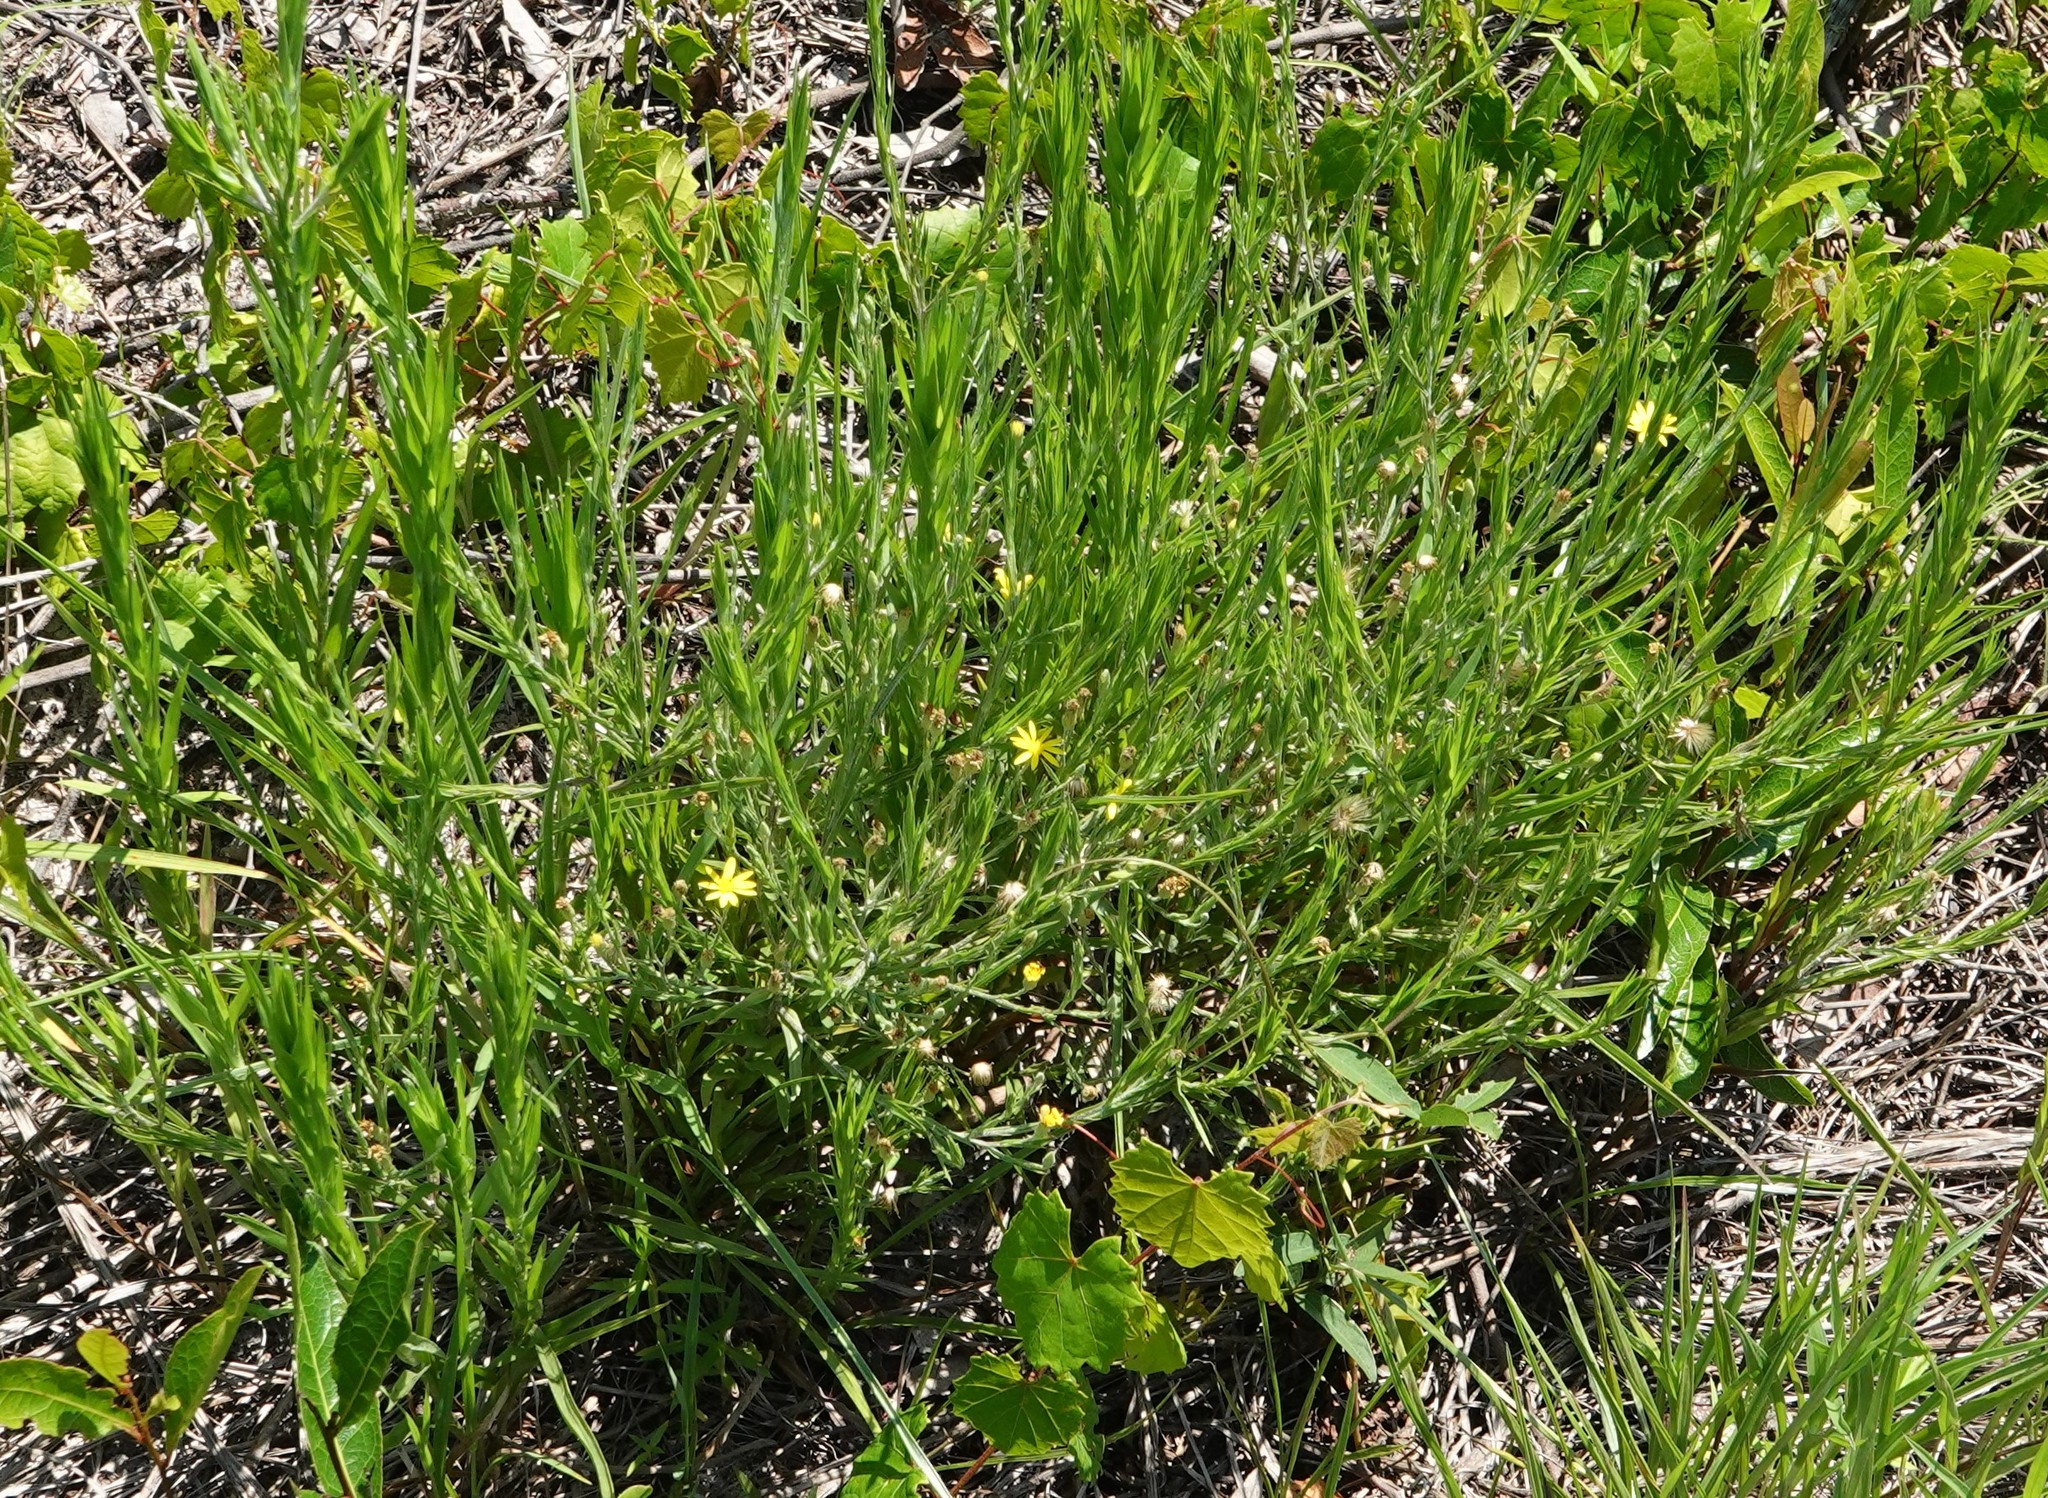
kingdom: Plantae
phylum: Tracheophyta
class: Magnoliopsida
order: Asterales
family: Asteraceae
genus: Pityopsis
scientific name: Pityopsis graminifolia
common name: Grass-leaf golden-aster
